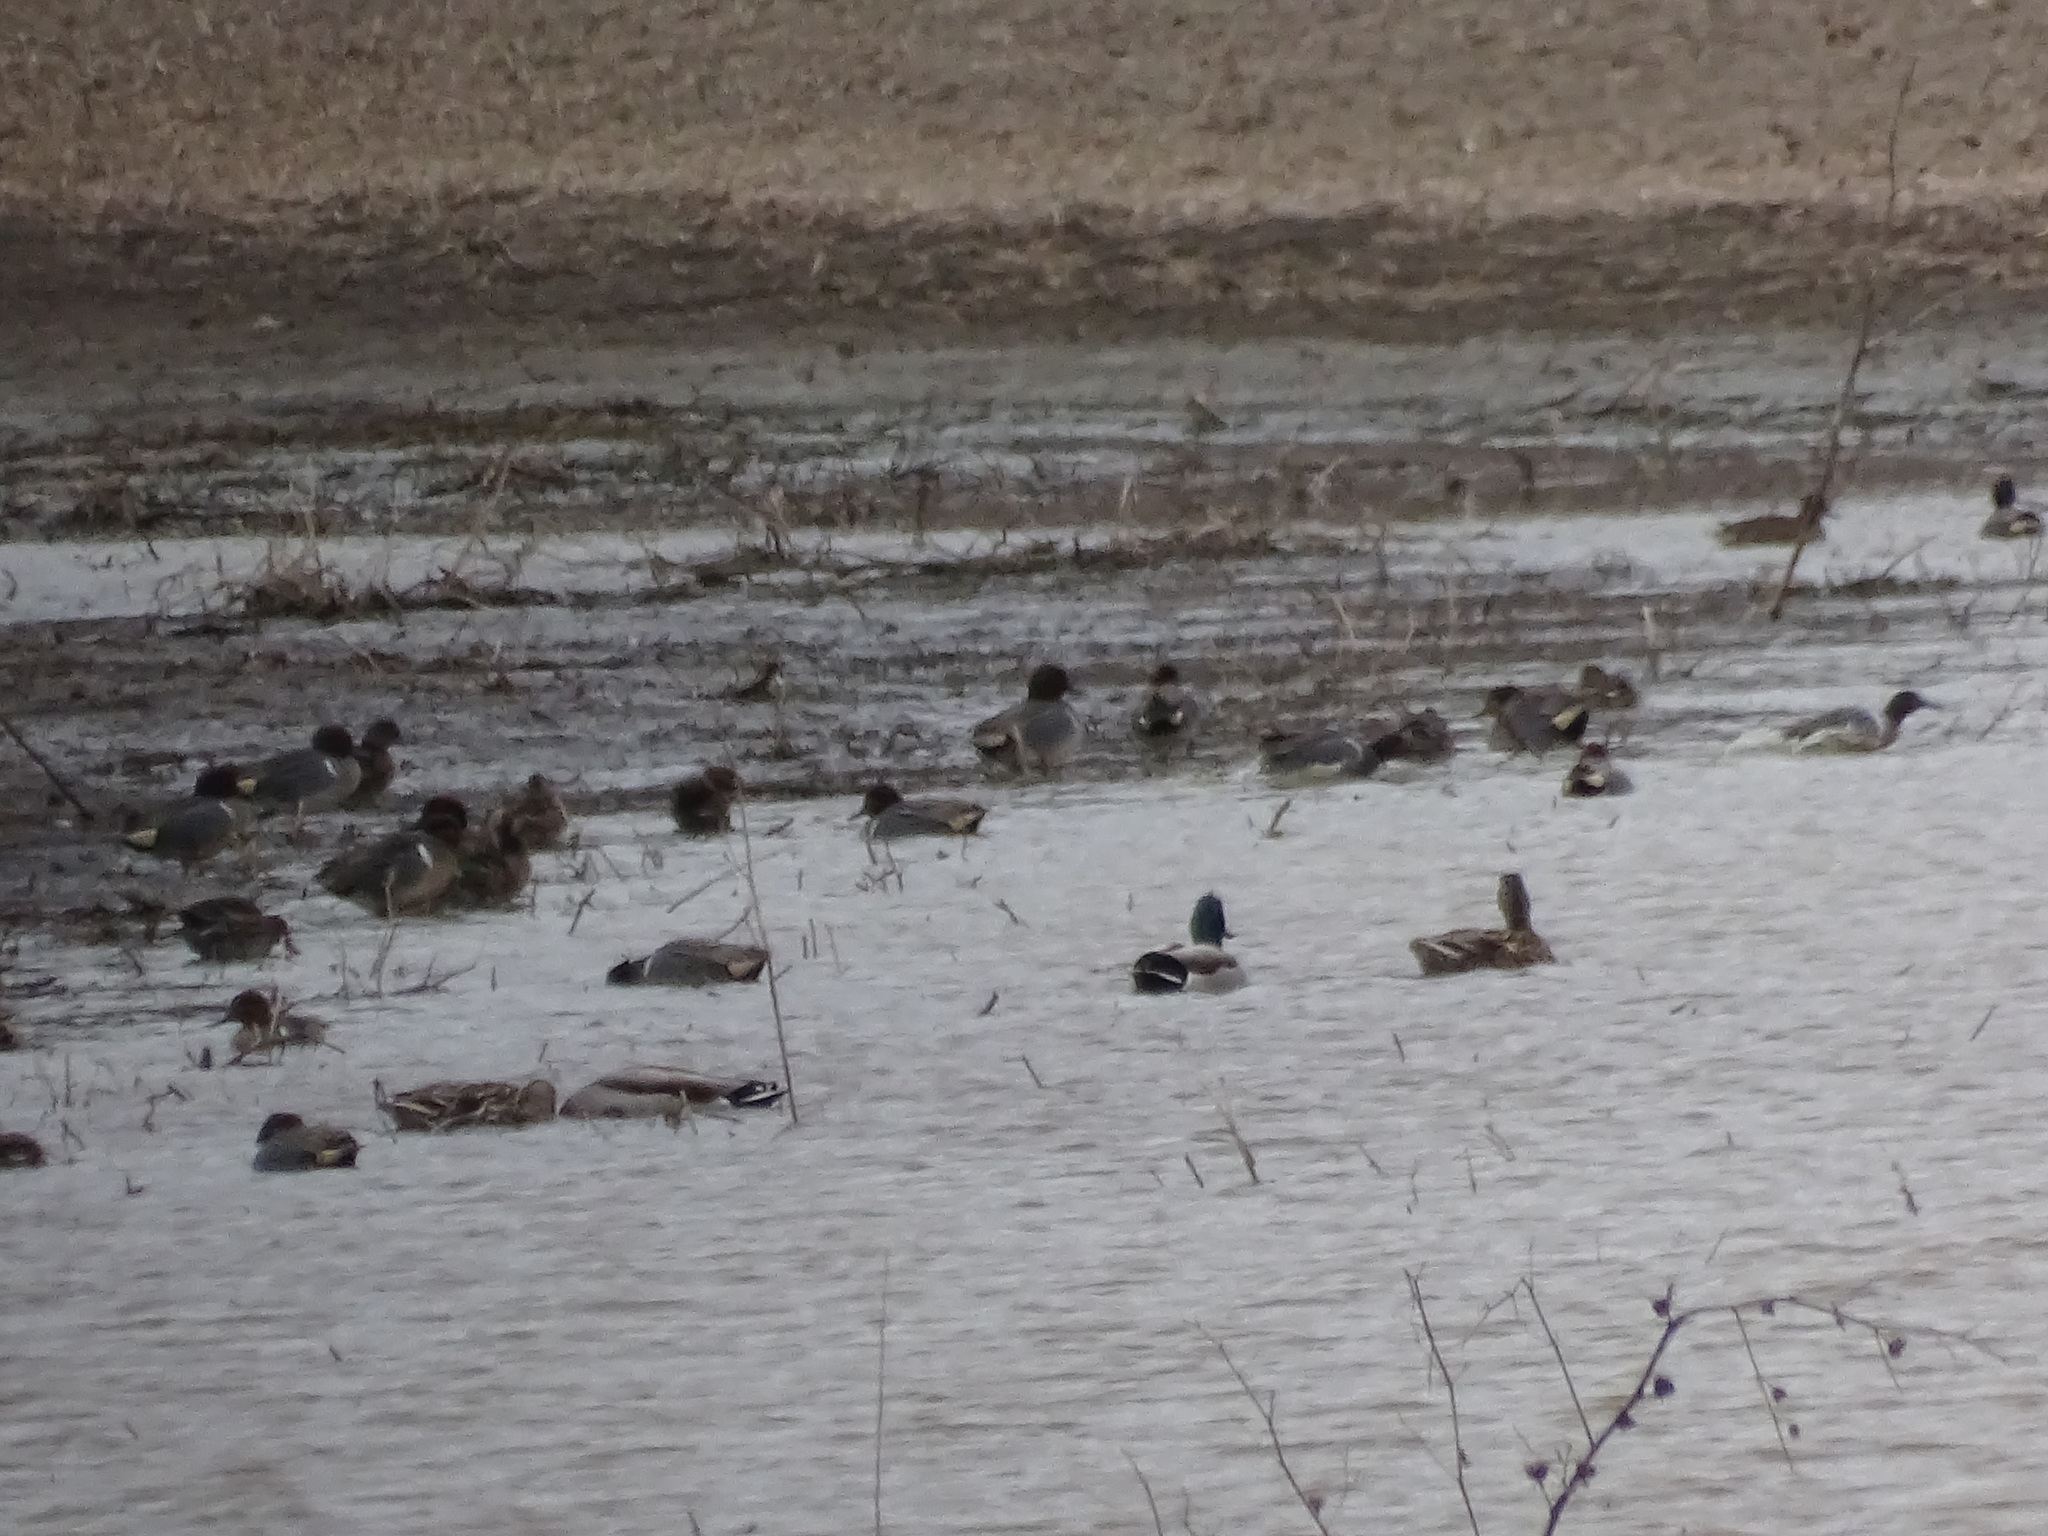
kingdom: Animalia
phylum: Chordata
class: Aves
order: Anseriformes
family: Anatidae
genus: Anas
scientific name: Anas crecca
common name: Eurasian teal
